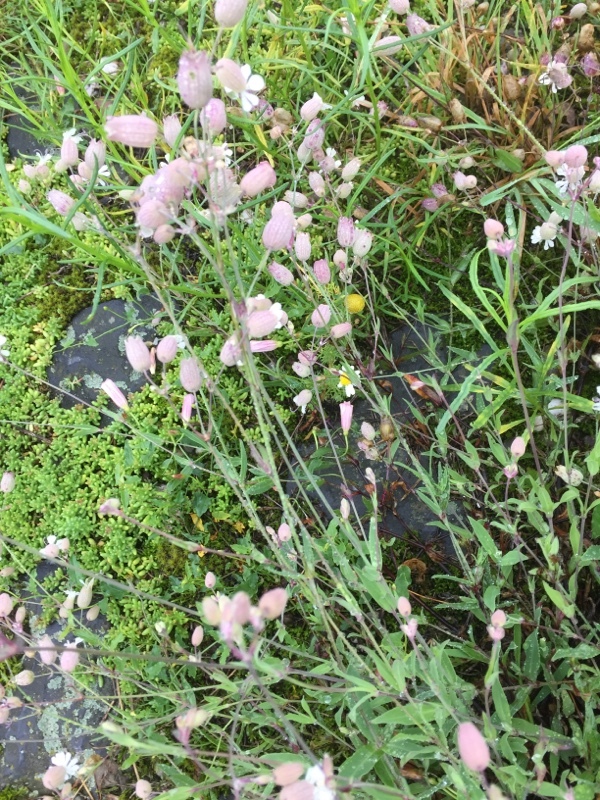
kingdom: Plantae
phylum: Tracheophyta
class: Magnoliopsida
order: Caryophyllales
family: Caryophyllaceae
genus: Silene
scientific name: Silene vulgaris
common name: Bladder campion
